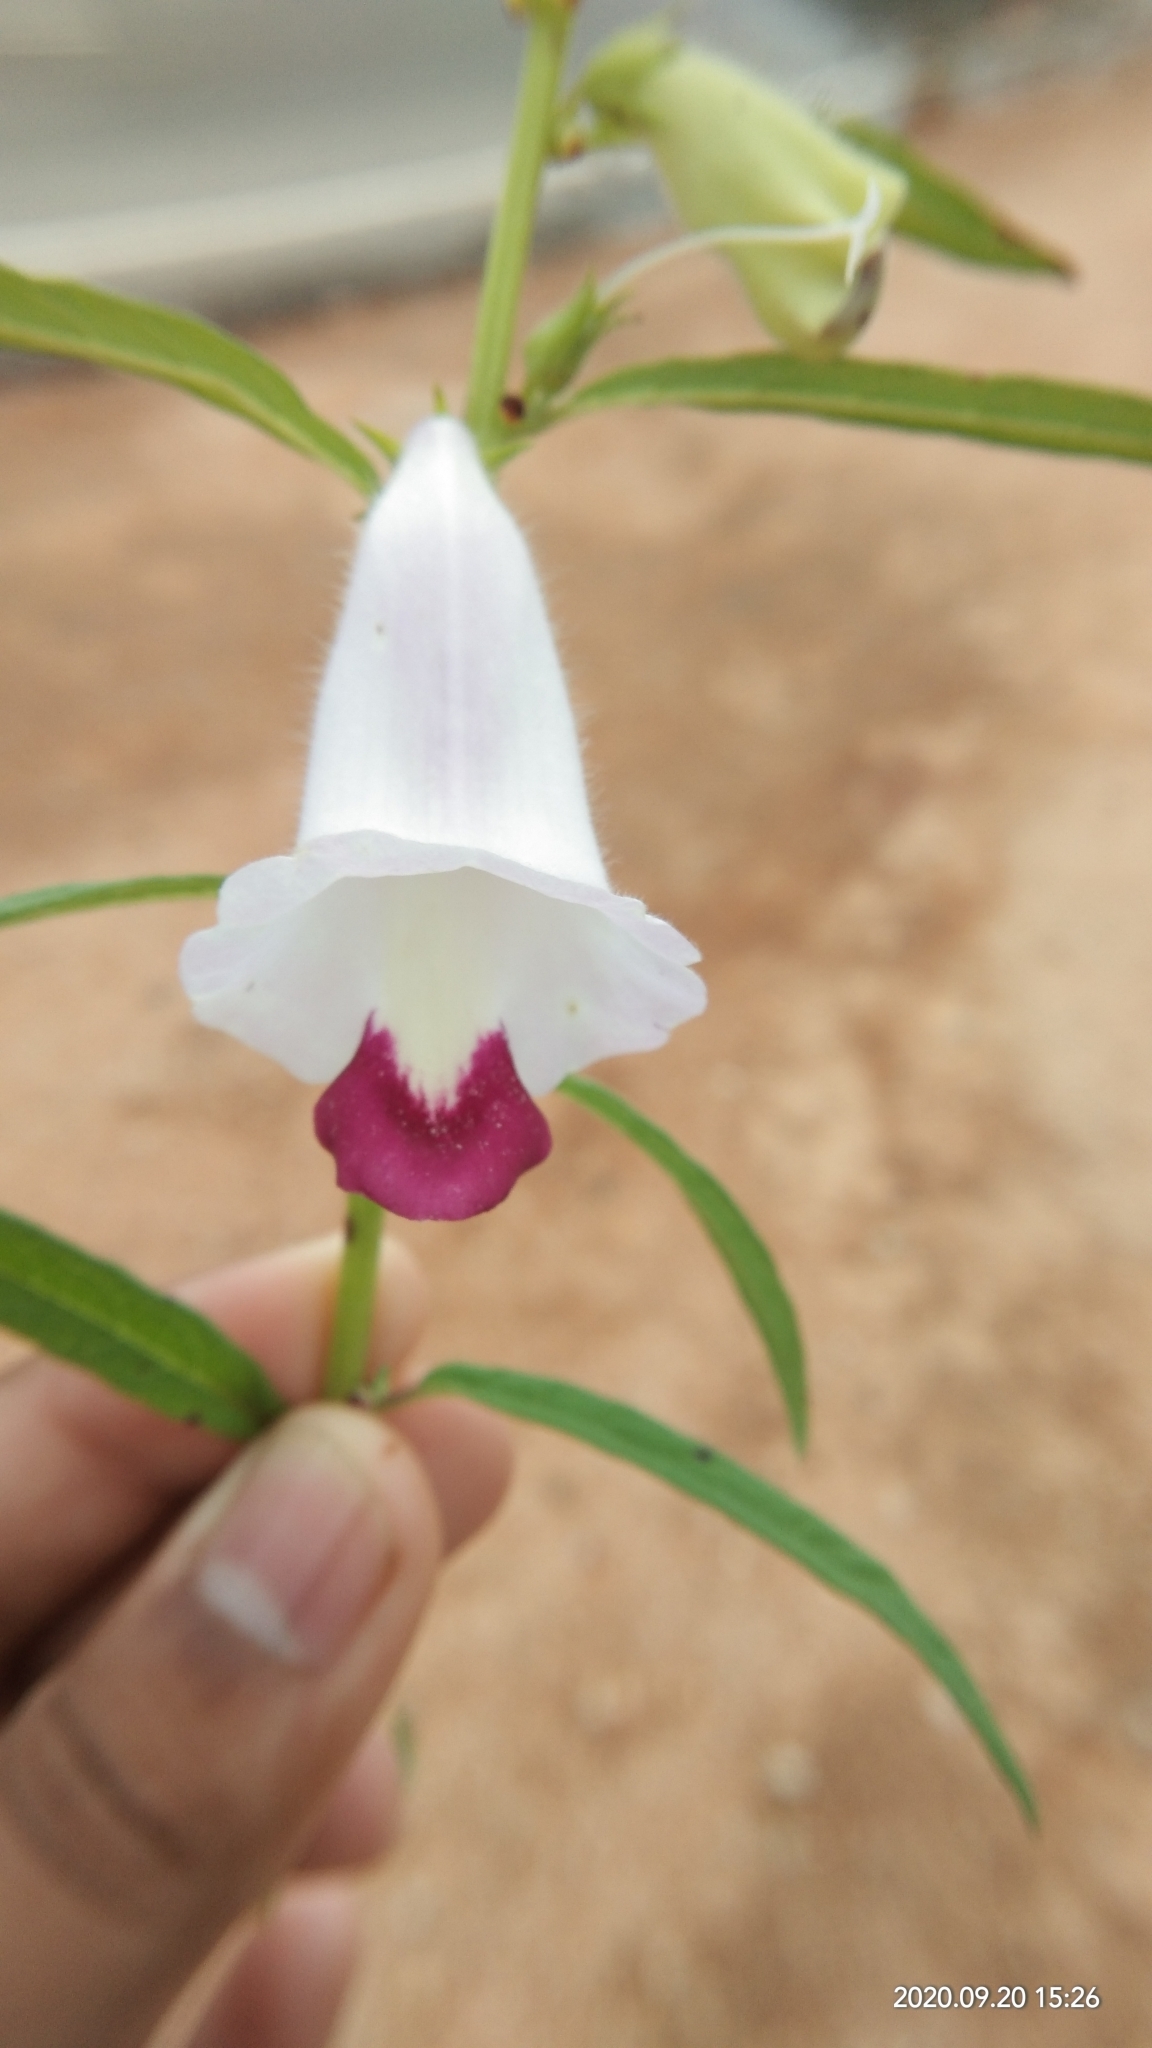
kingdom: Plantae
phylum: Tracheophyta
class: Magnoliopsida
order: Lamiales
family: Pedaliaceae
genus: Sesamum
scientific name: Sesamum indicum
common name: Sesame
